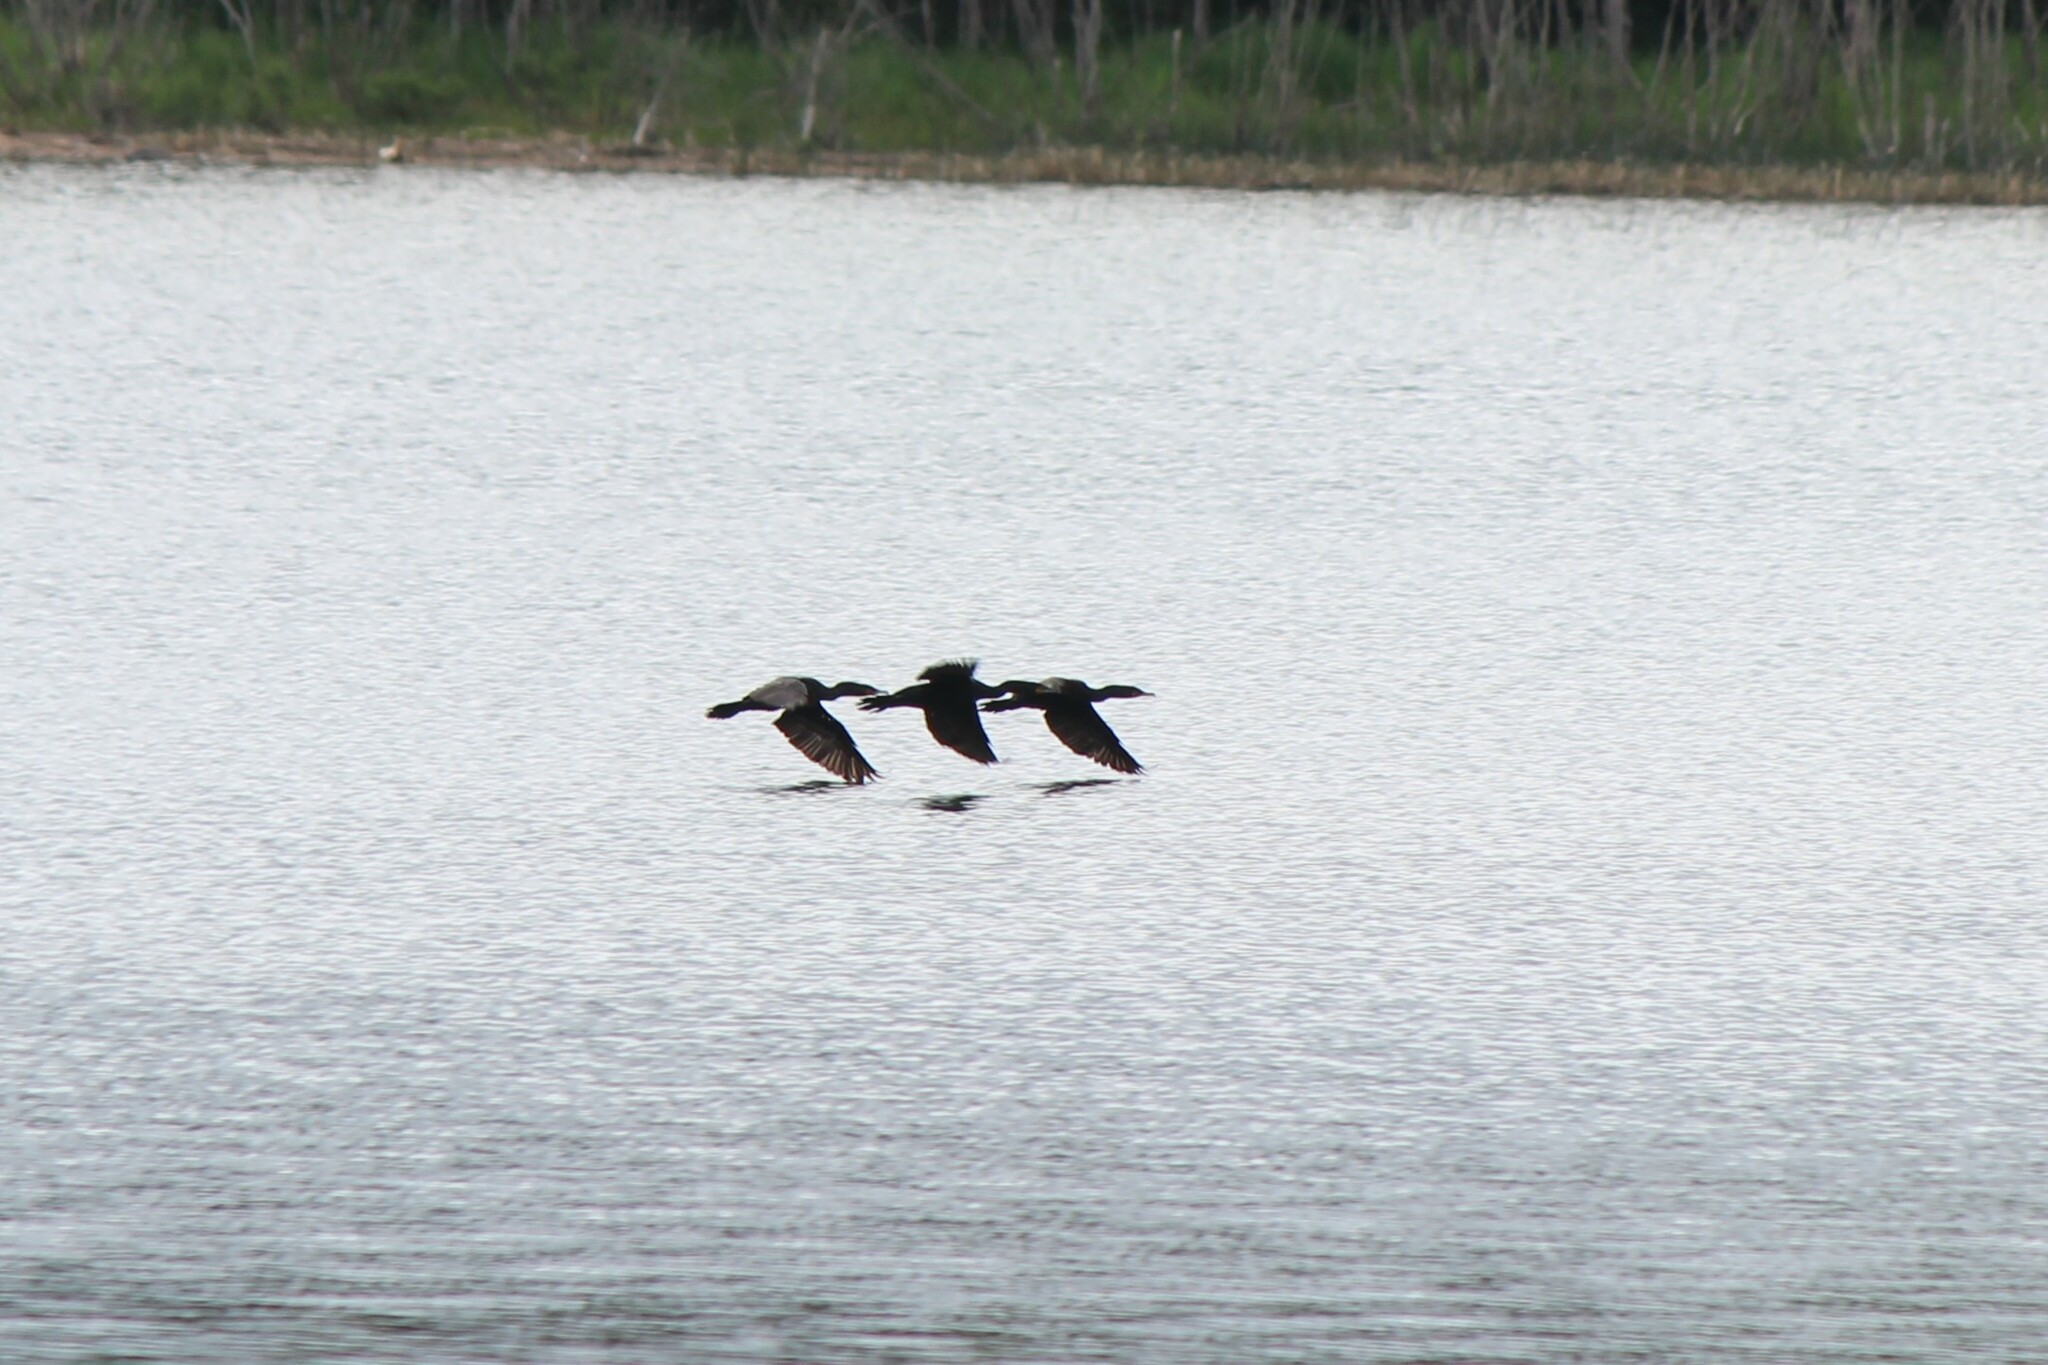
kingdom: Animalia
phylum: Chordata
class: Aves
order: Suliformes
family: Phalacrocoracidae
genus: Phalacrocorax
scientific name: Phalacrocorax auritus
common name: Double-crested cormorant
